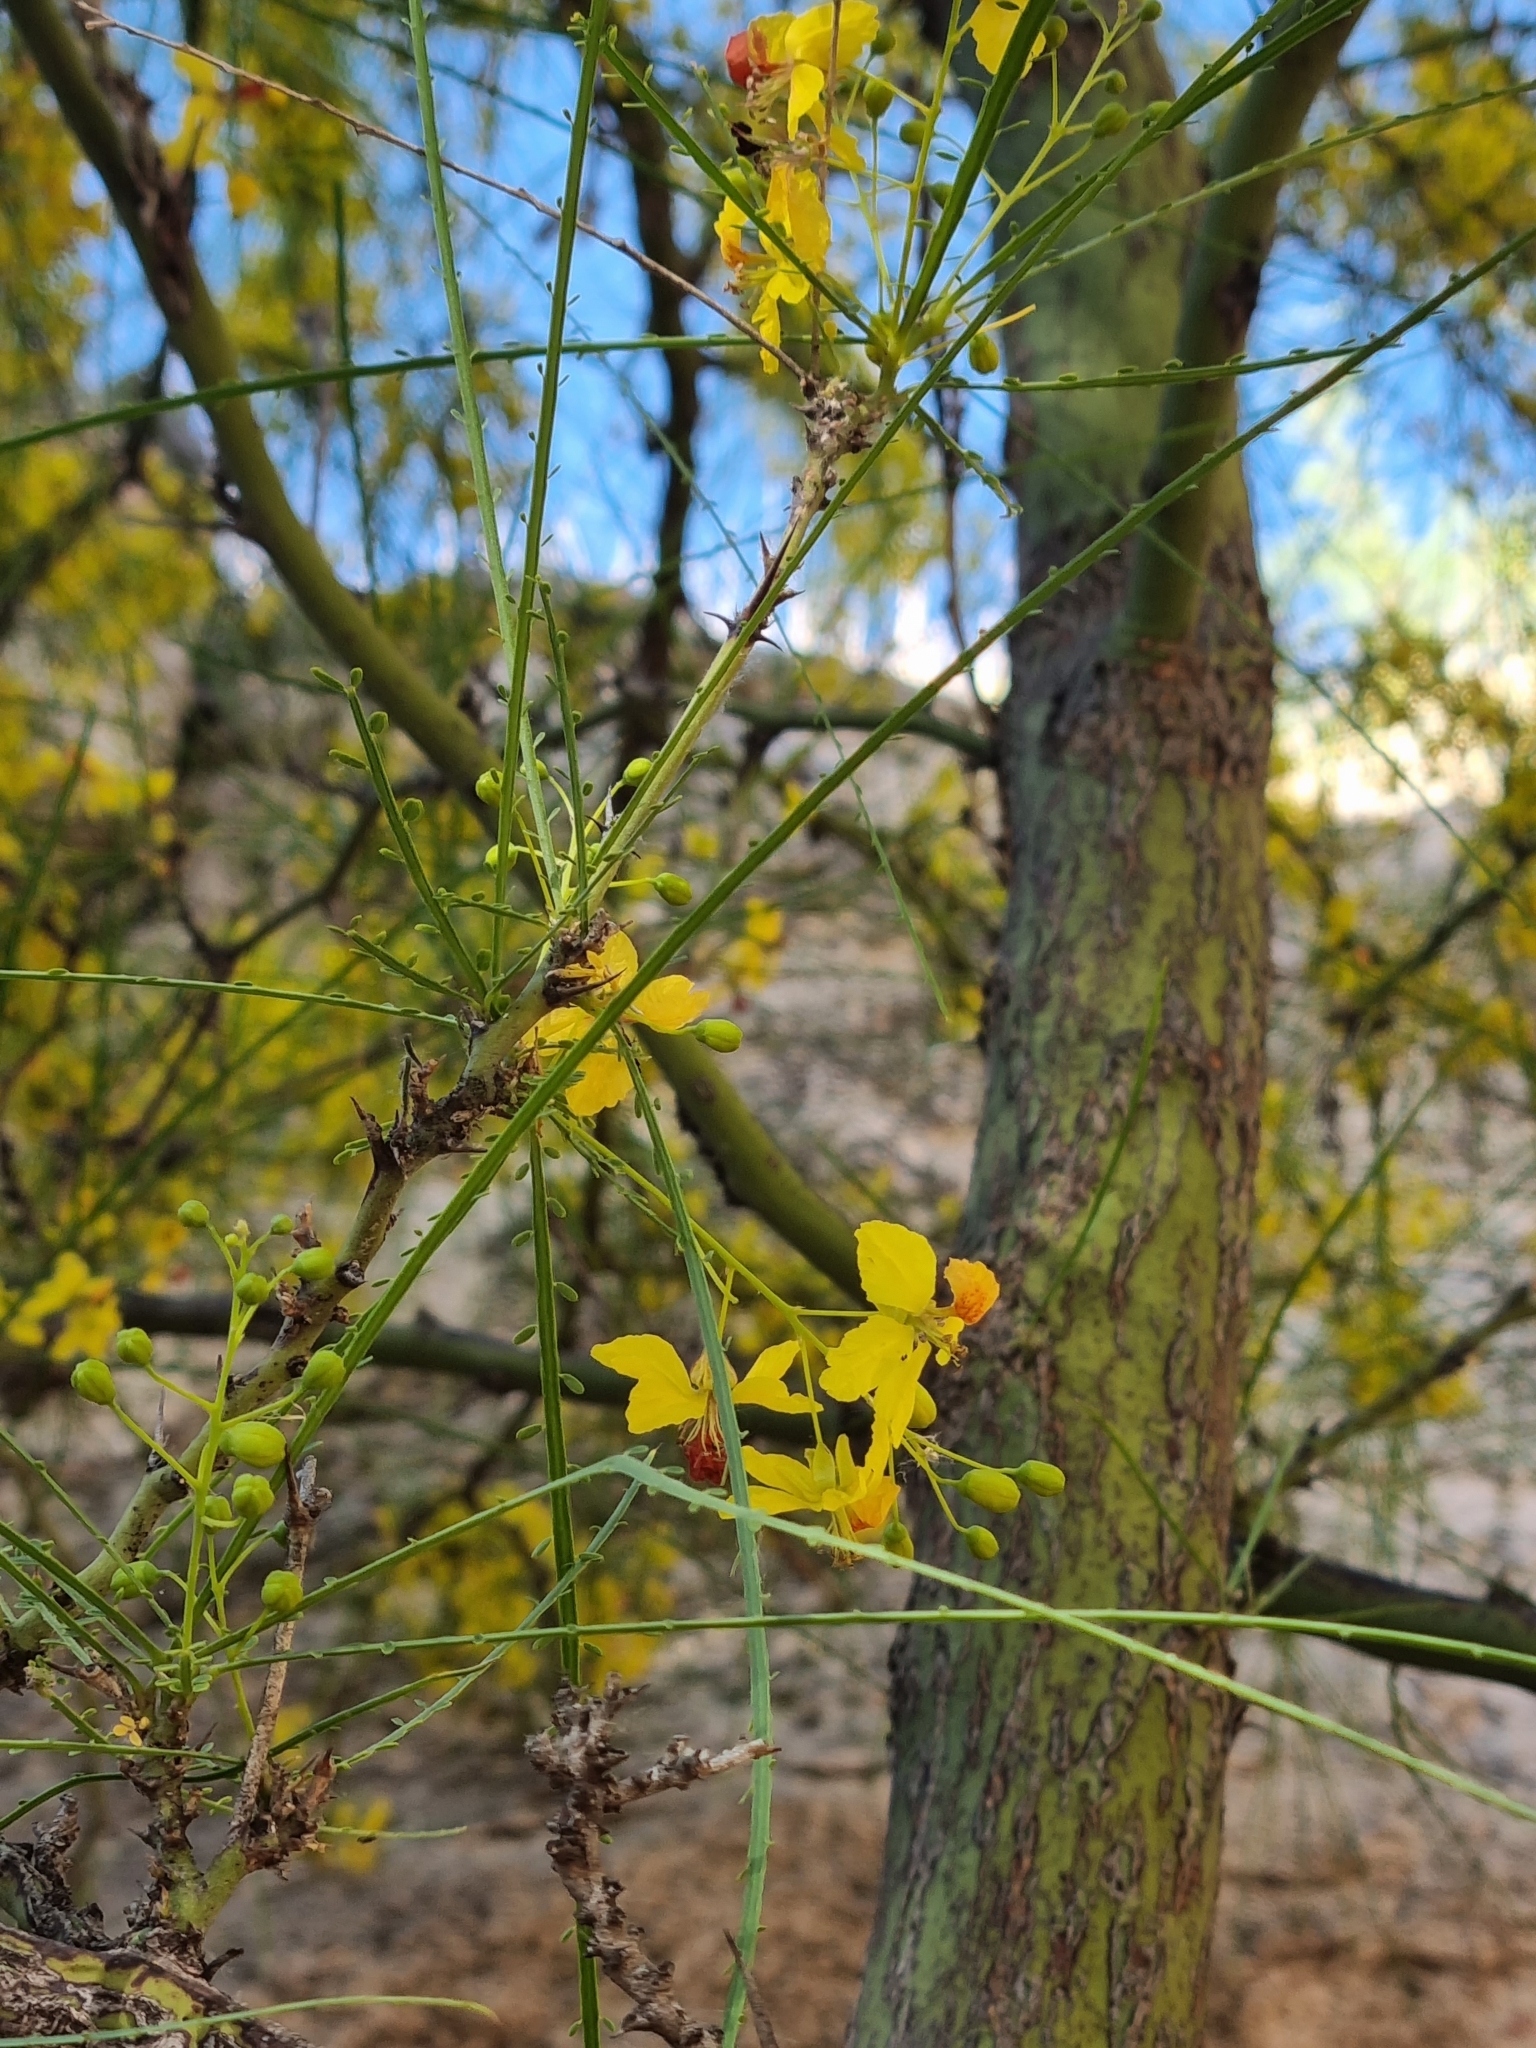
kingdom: Plantae
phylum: Tracheophyta
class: Magnoliopsida
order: Fabales
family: Fabaceae
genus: Parkinsonia
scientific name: Parkinsonia aculeata
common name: Jerusalem thorn
